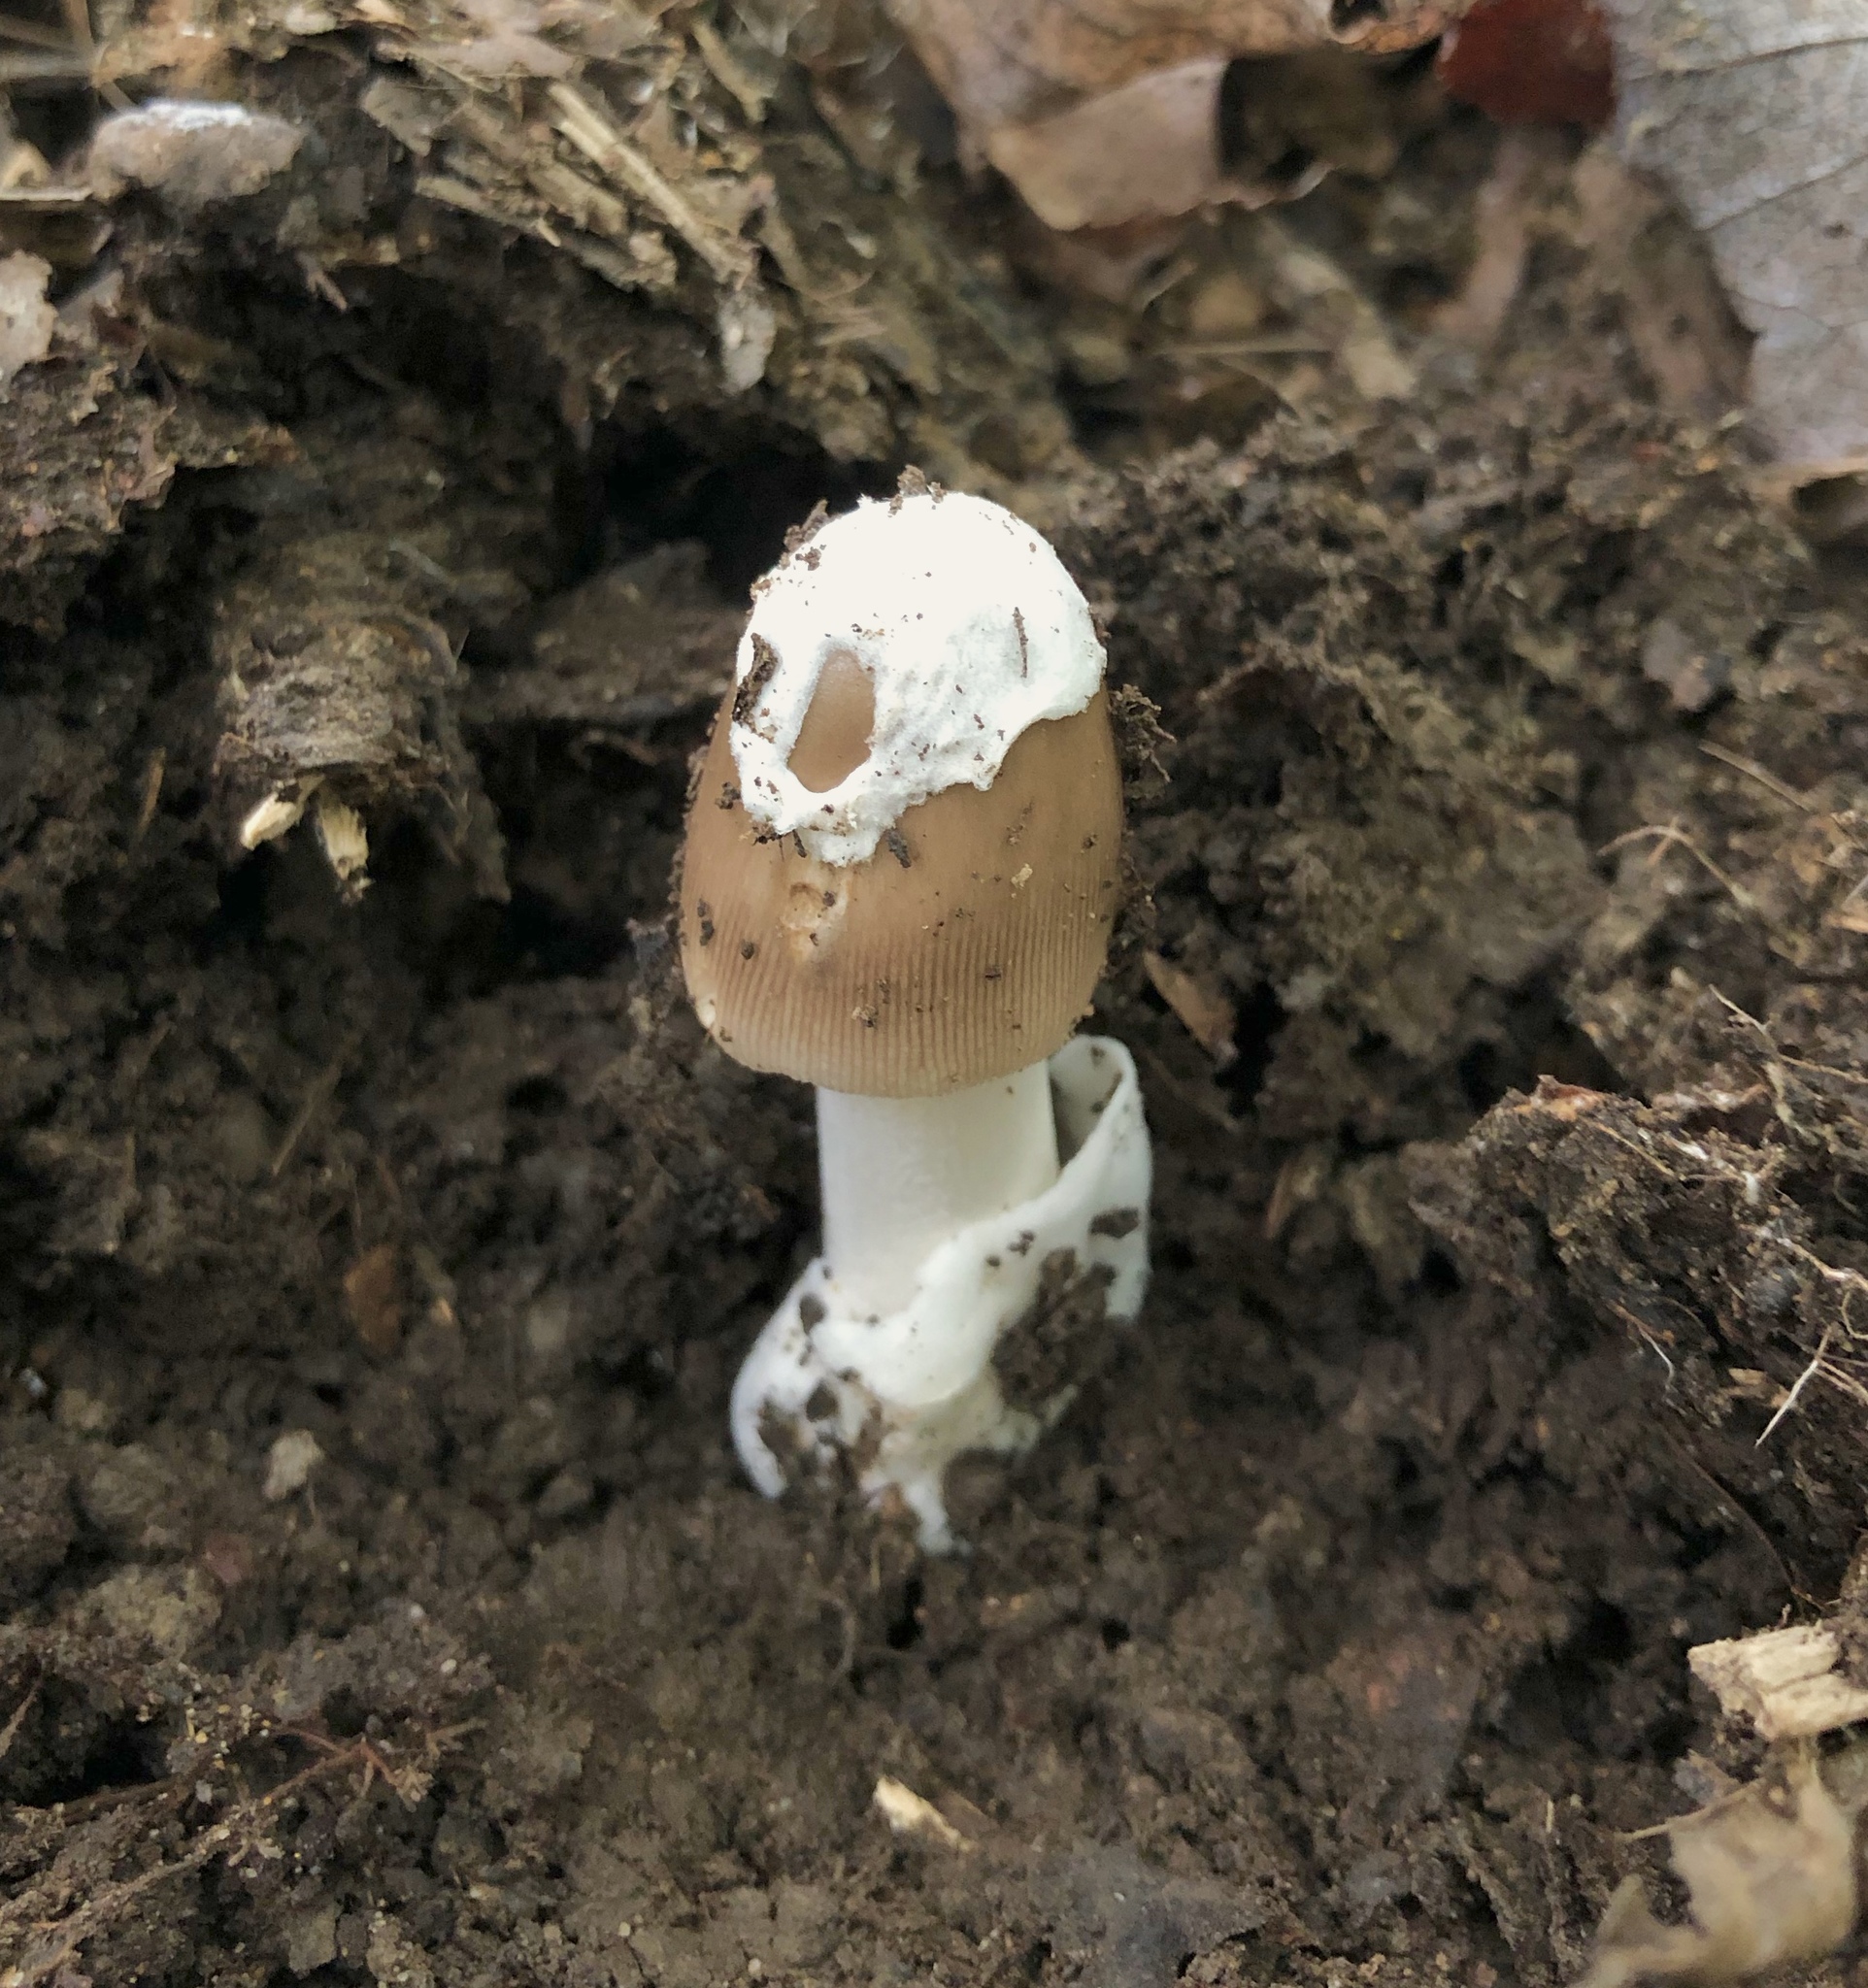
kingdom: Fungi
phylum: Basidiomycota
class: Agaricomycetes
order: Agaricales
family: Amanitaceae
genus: Amanita
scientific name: Amanita fulva
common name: Tawny grisette
